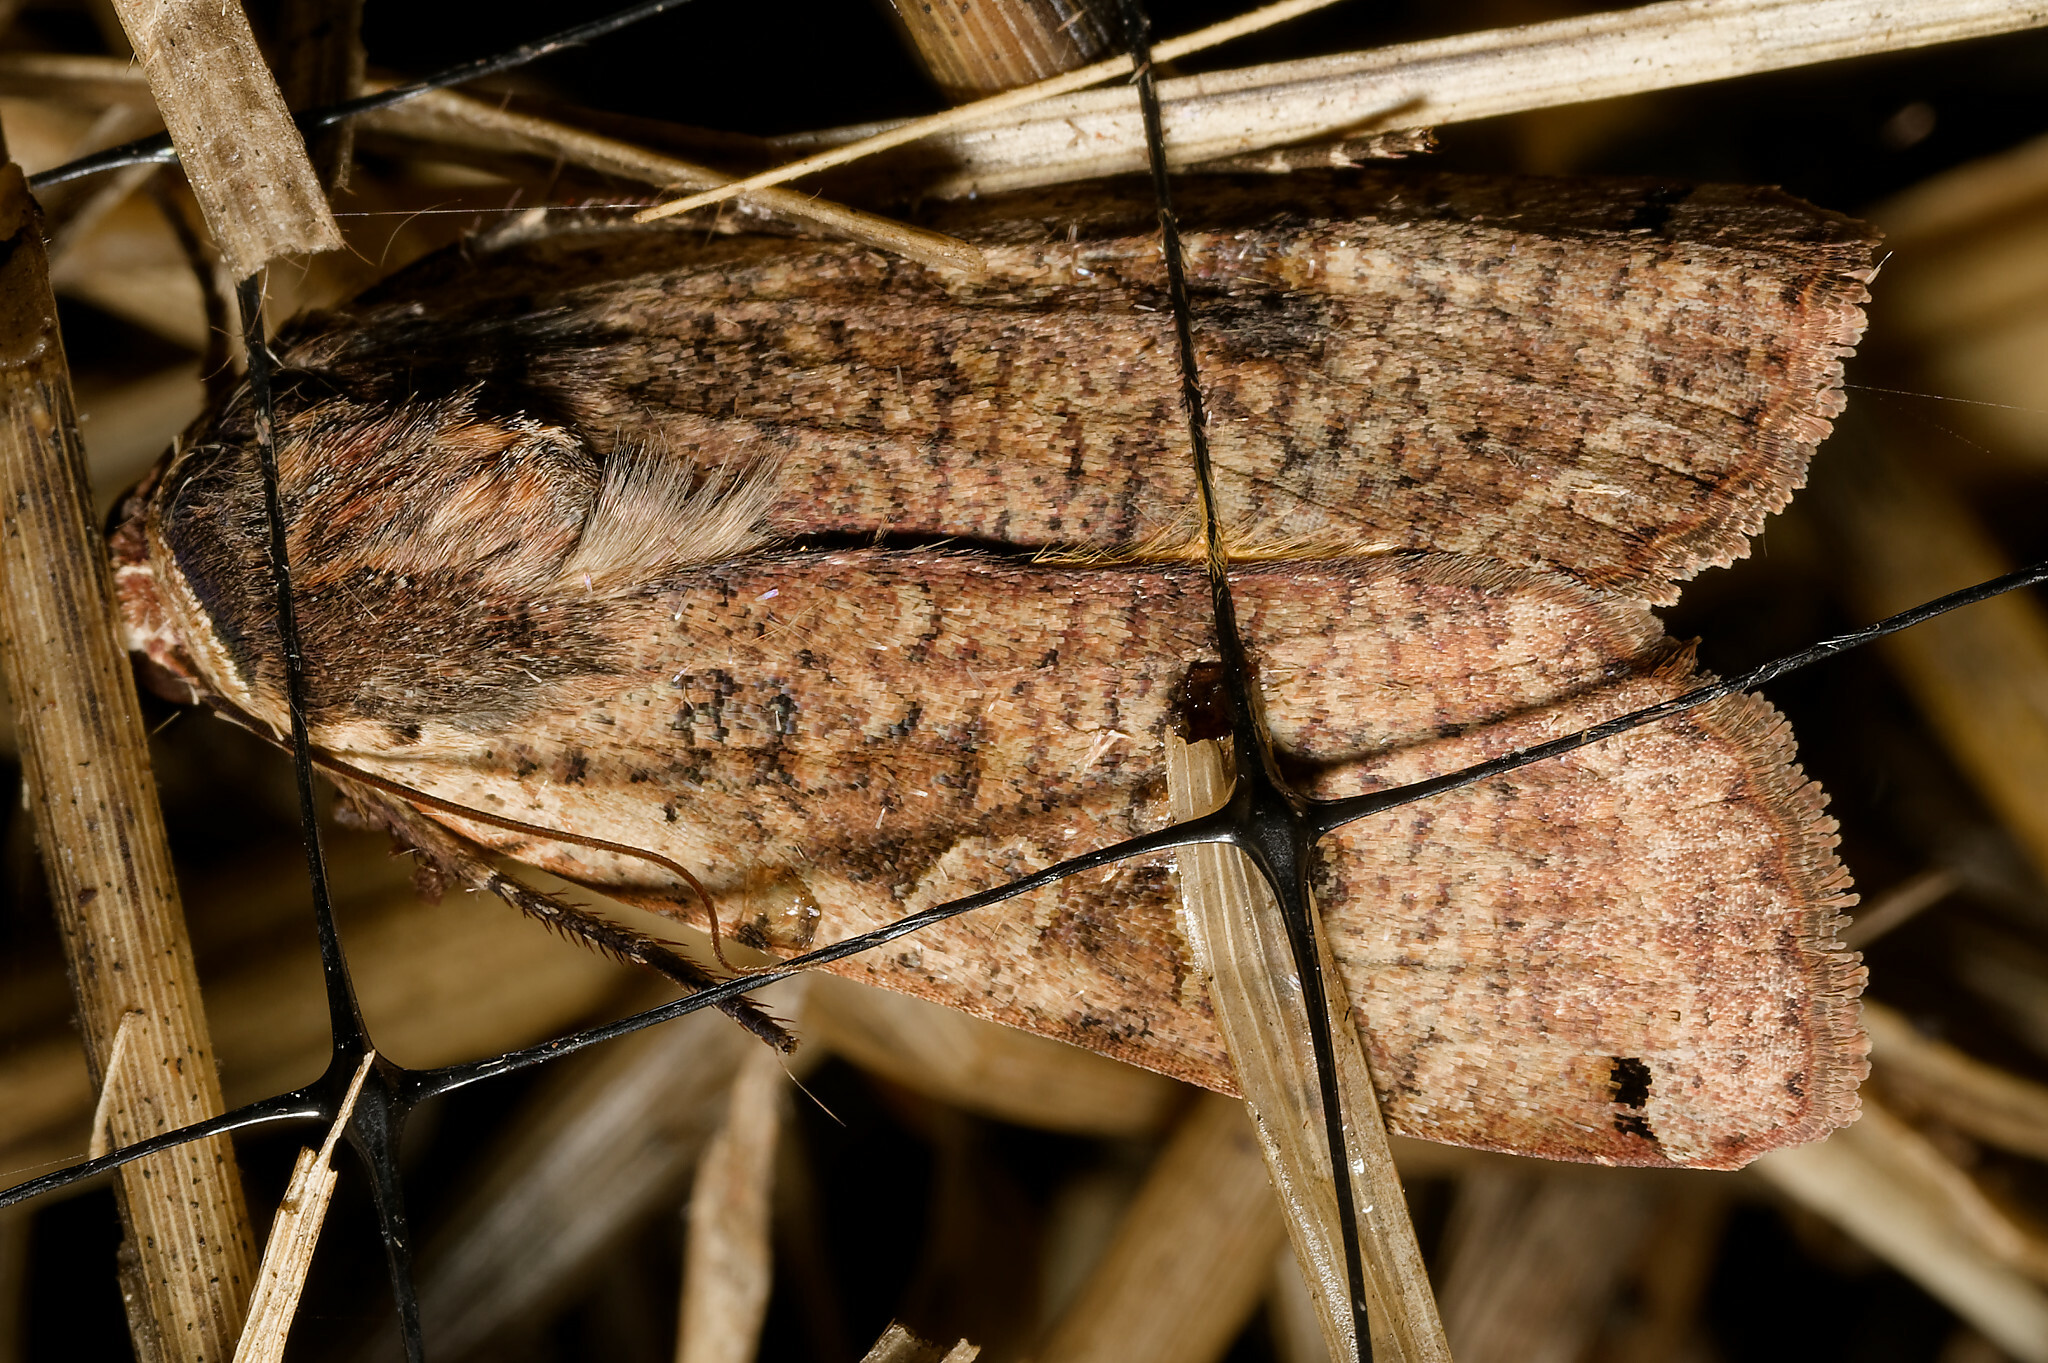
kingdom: Animalia
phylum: Arthropoda
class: Insecta
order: Lepidoptera
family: Noctuidae
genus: Noctua
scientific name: Noctua pronuba
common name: Large yellow underwing
